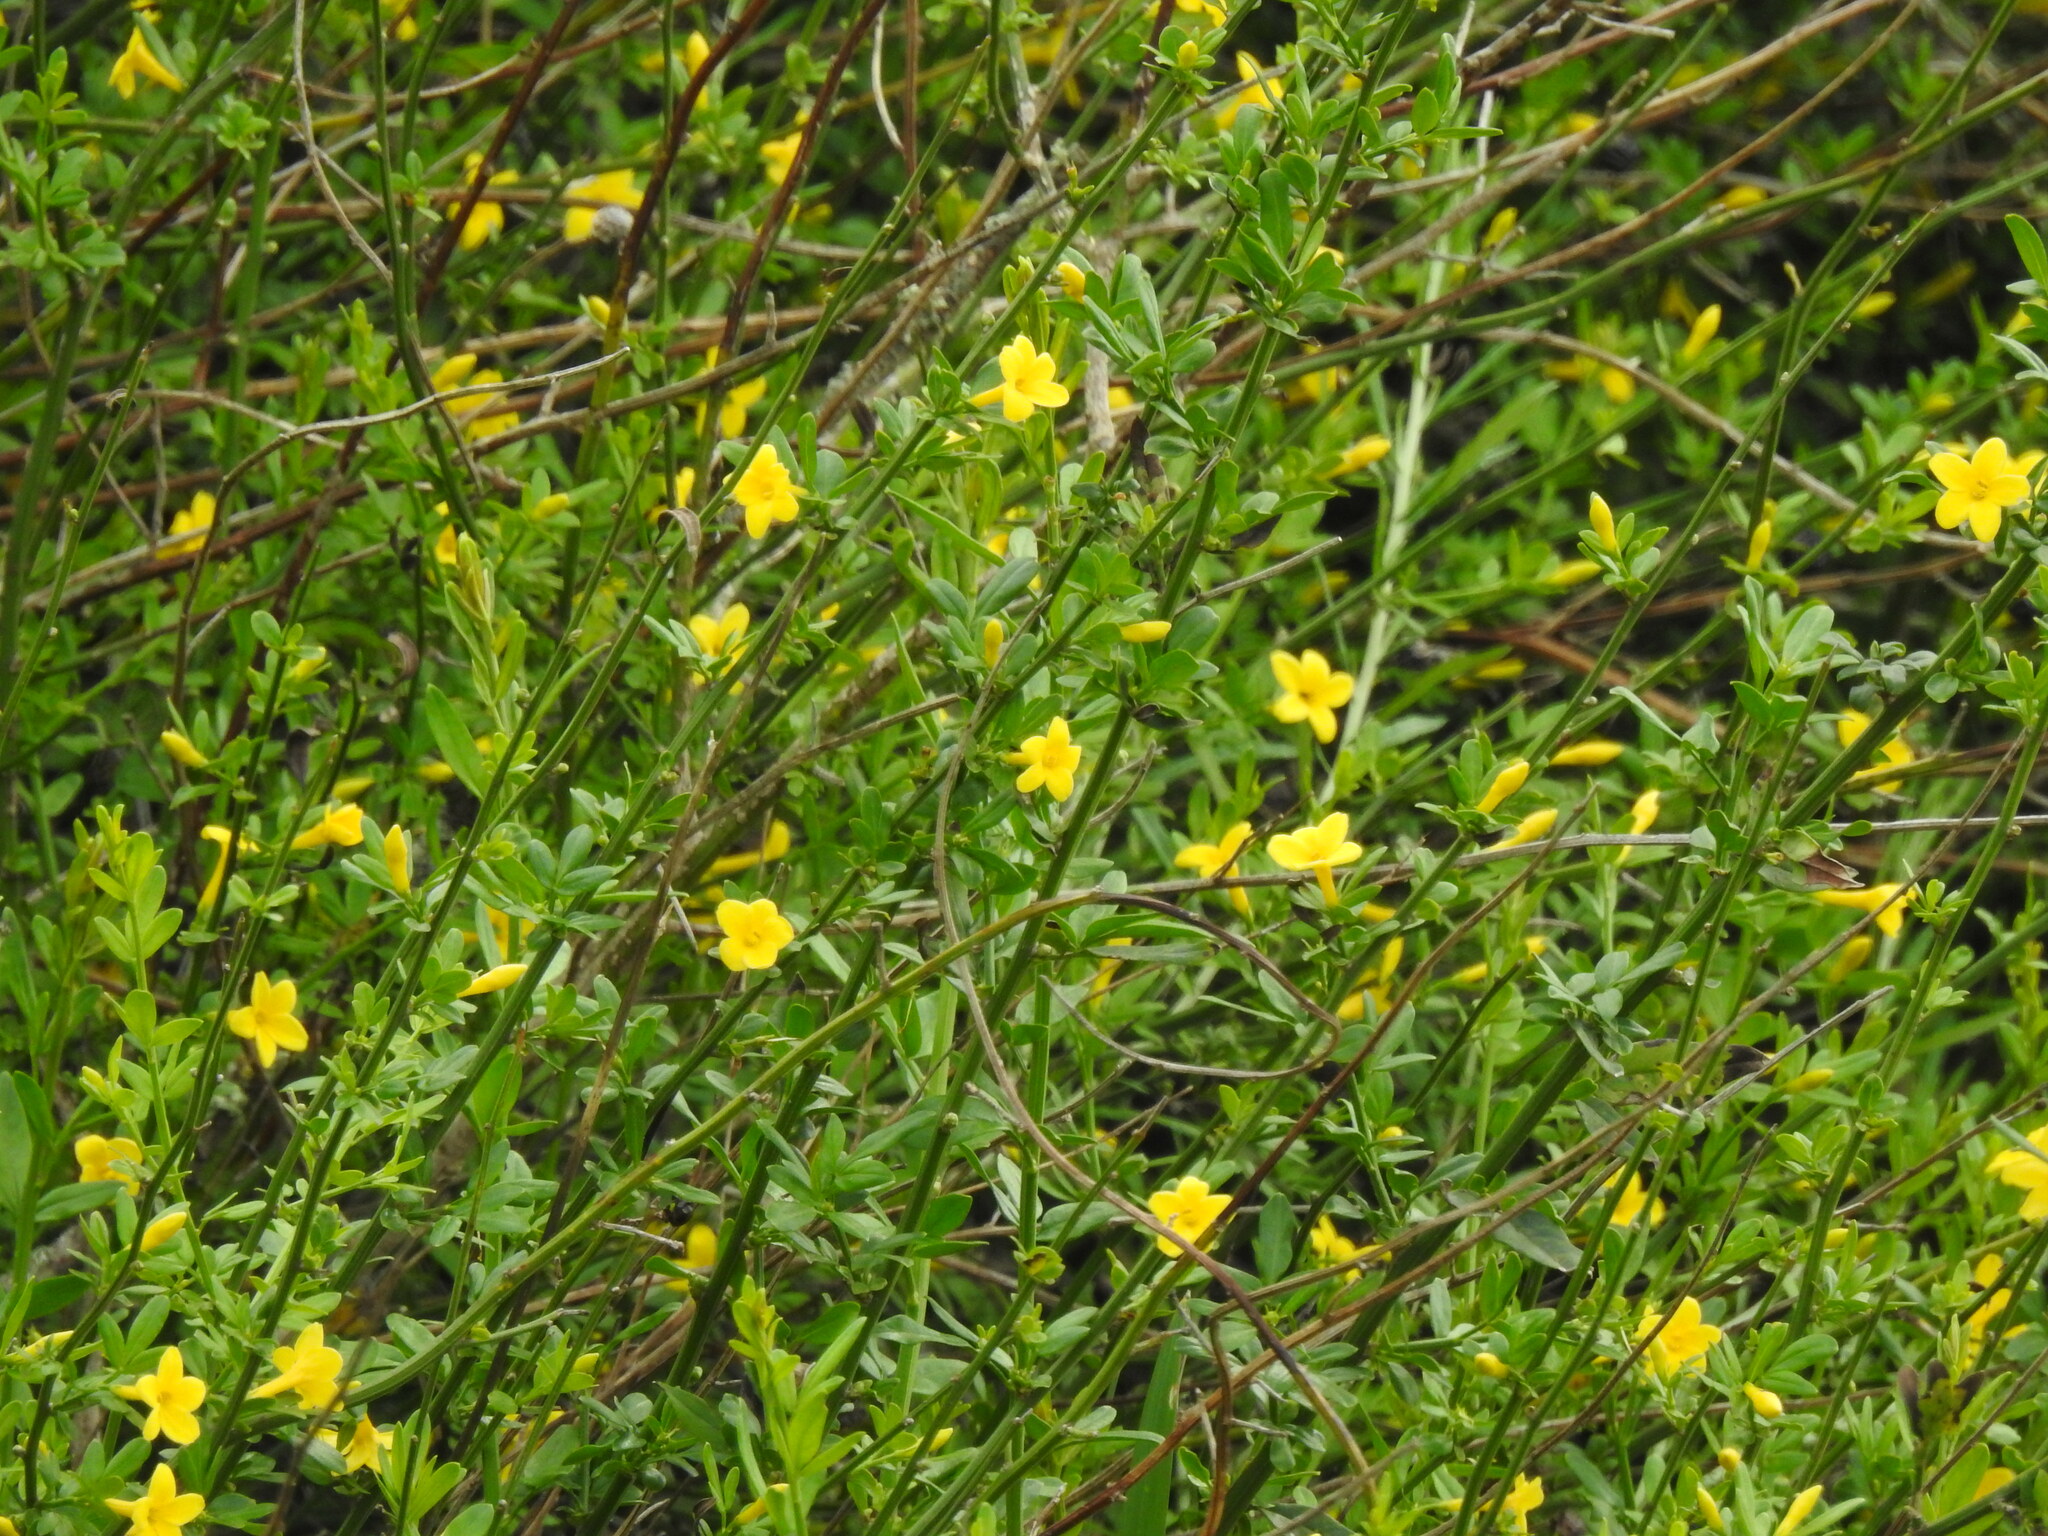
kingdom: Plantae
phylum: Tracheophyta
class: Magnoliopsida
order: Lamiales
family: Oleaceae
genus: Chrysojasminum
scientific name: Chrysojasminum fruticans
